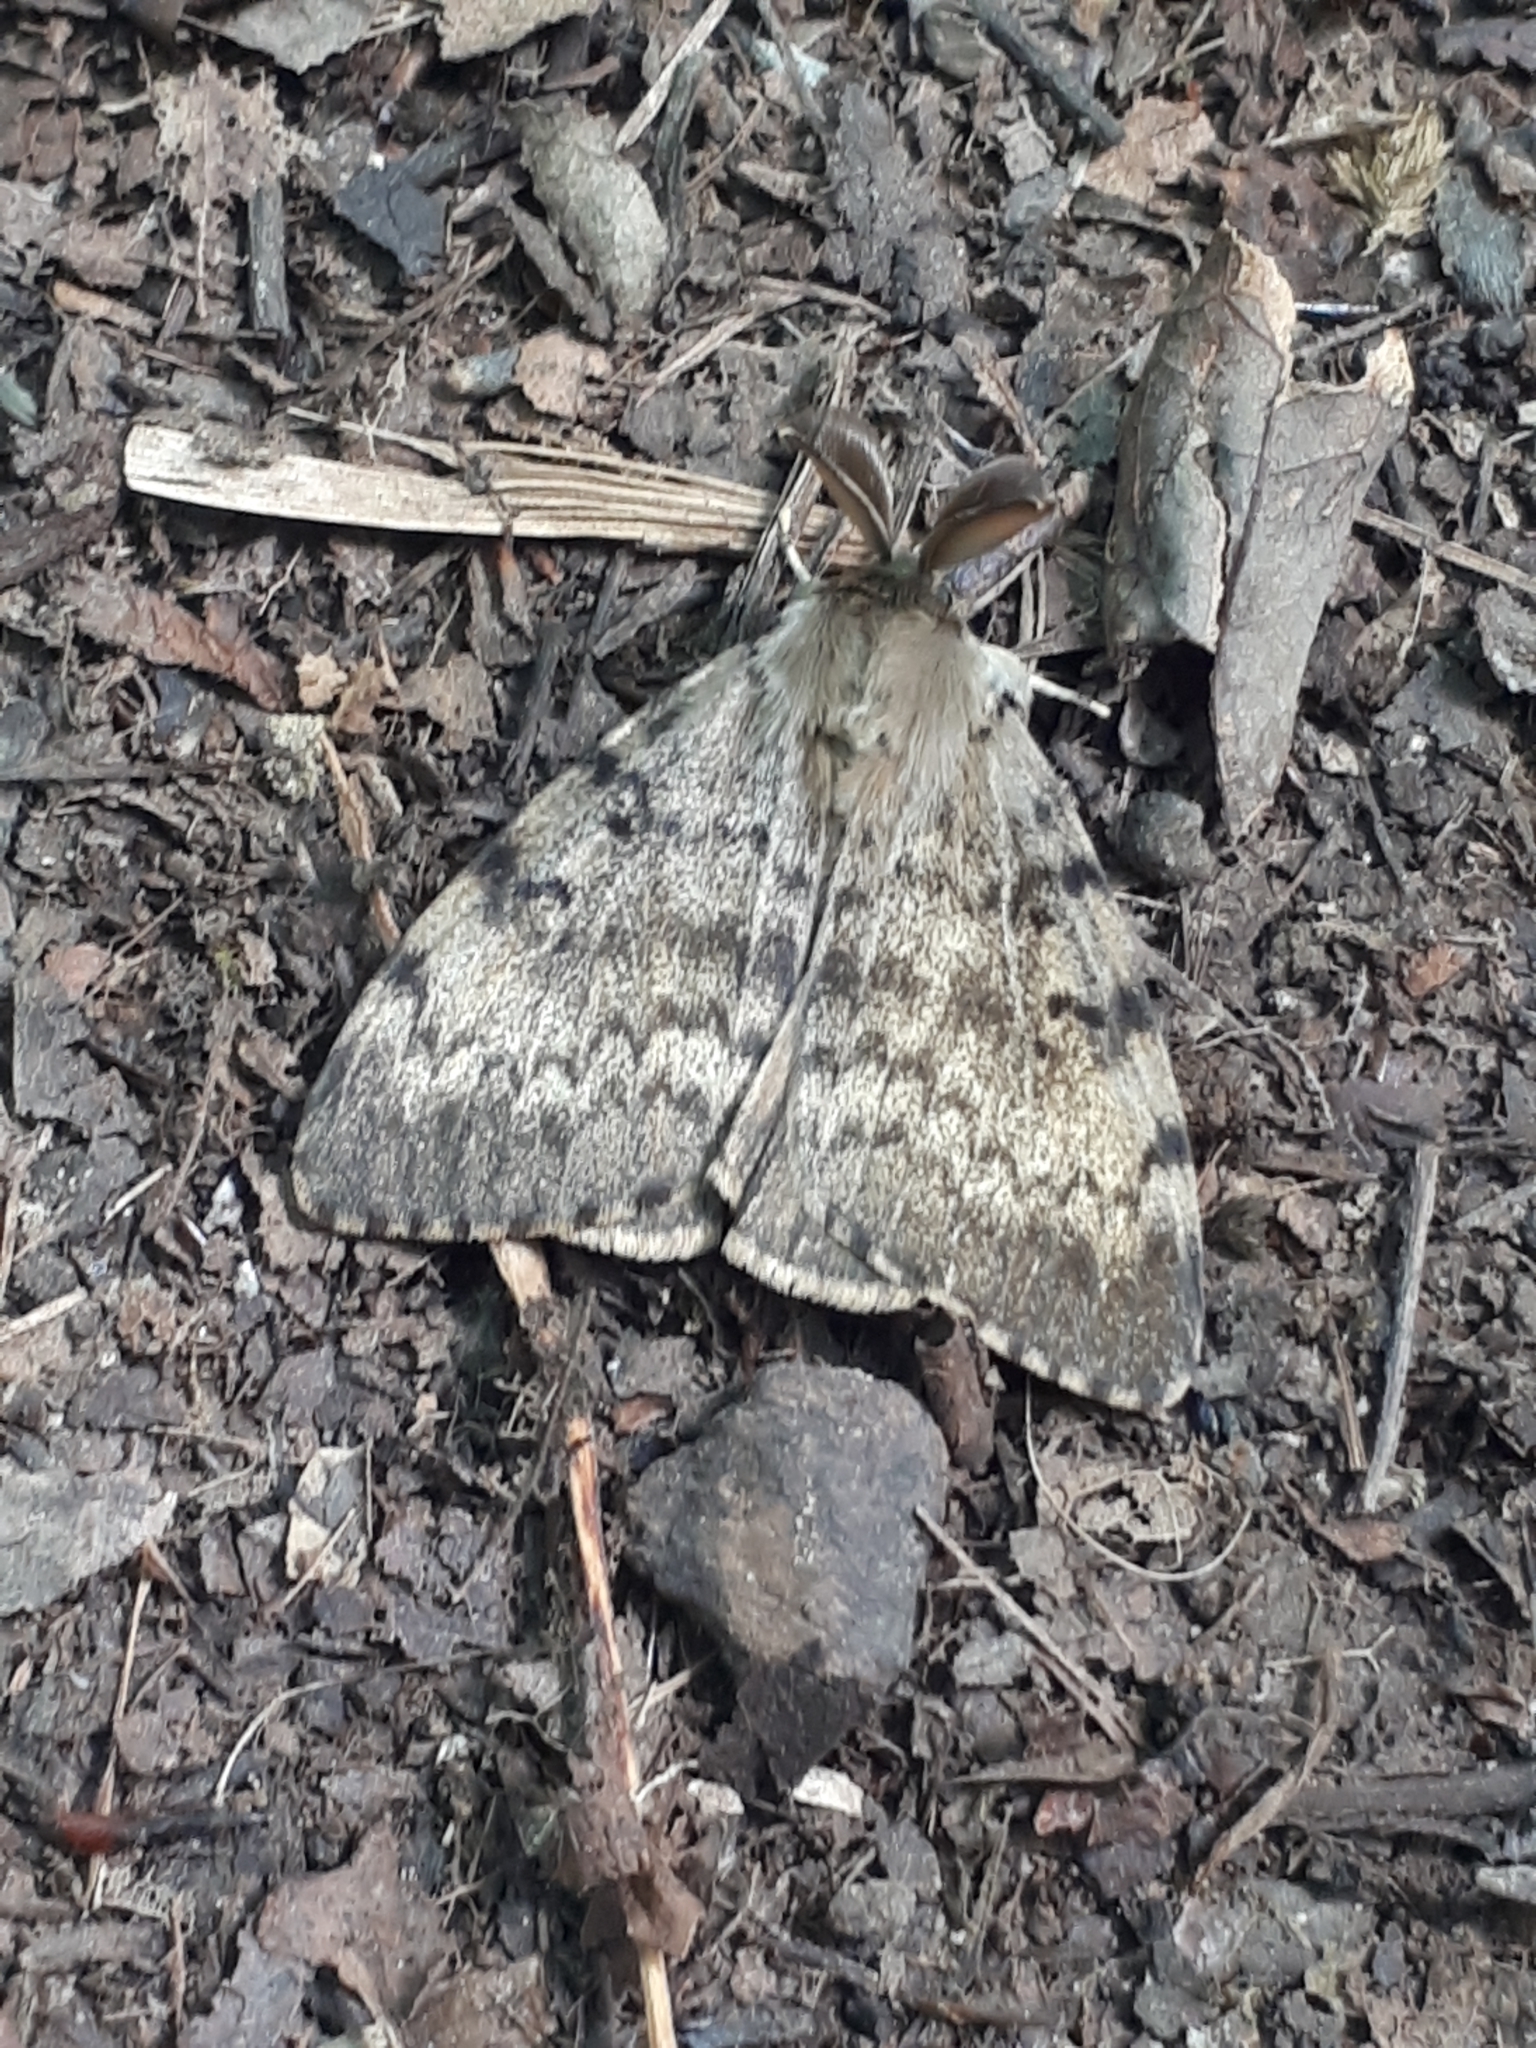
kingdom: Animalia
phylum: Arthropoda
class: Insecta
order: Lepidoptera
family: Erebidae
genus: Lymantria
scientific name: Lymantria dispar
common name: Gypsy moth
